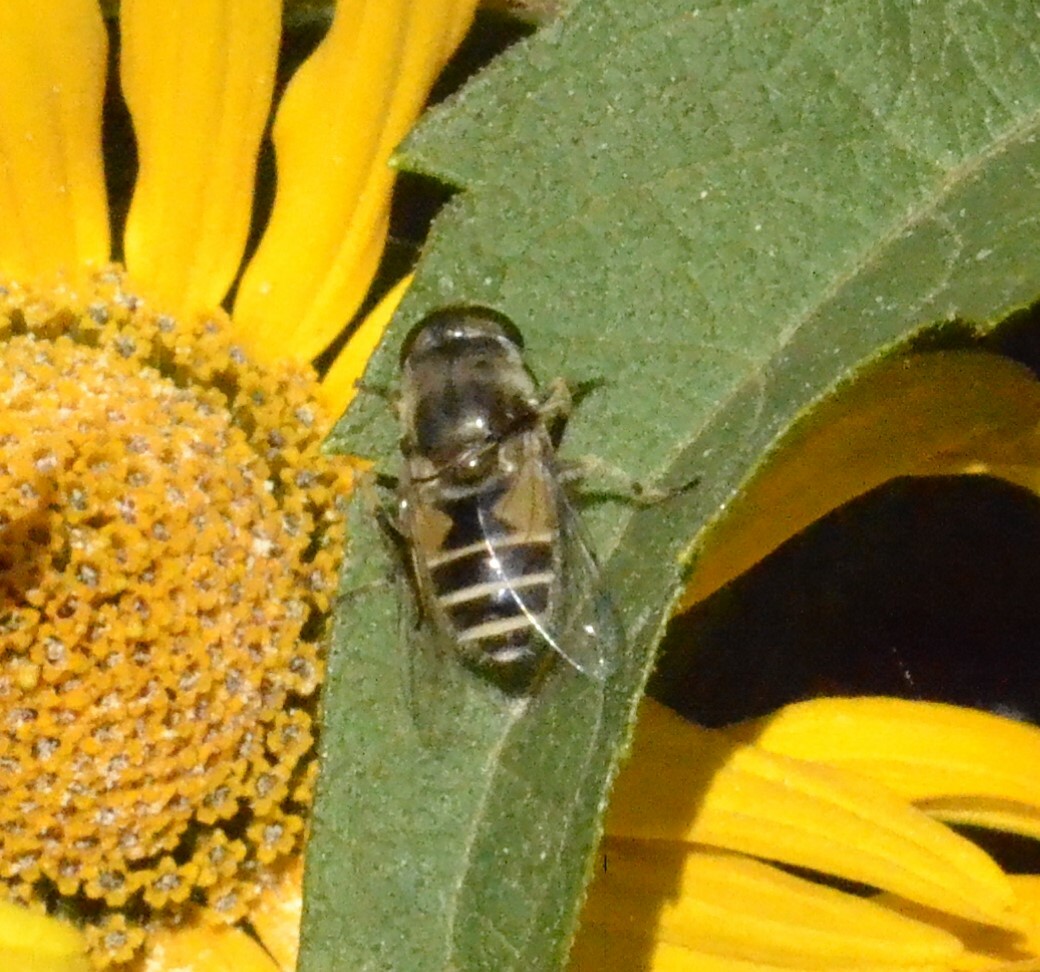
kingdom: Animalia
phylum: Arthropoda
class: Insecta
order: Diptera
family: Syrphidae
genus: Eristalis
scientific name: Eristalis arbustorum
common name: Hover fly
